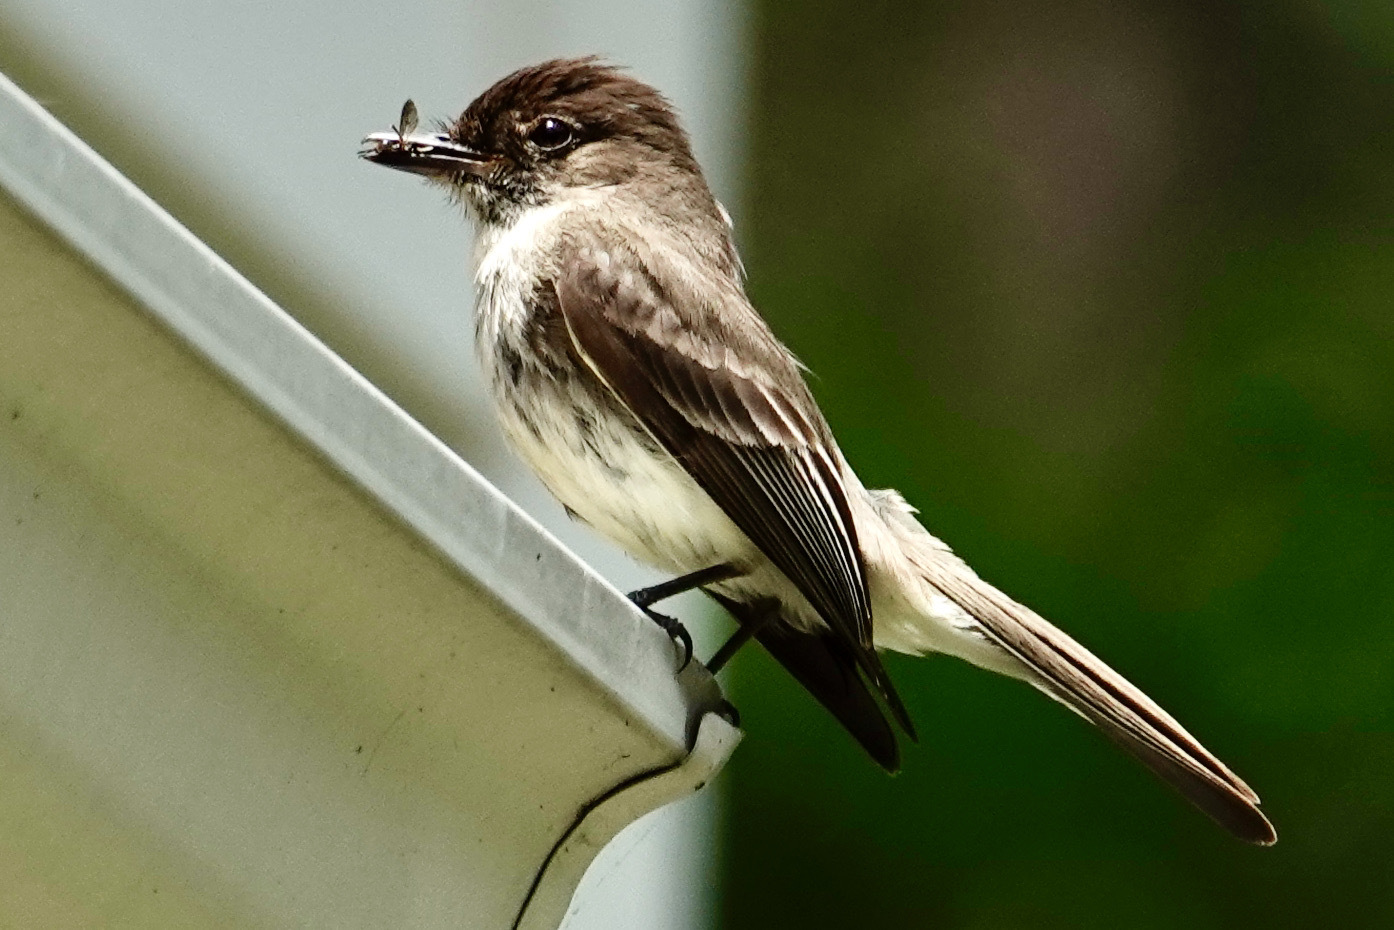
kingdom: Animalia
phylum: Chordata
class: Aves
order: Passeriformes
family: Tyrannidae
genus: Sayornis
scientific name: Sayornis phoebe
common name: Eastern phoebe
